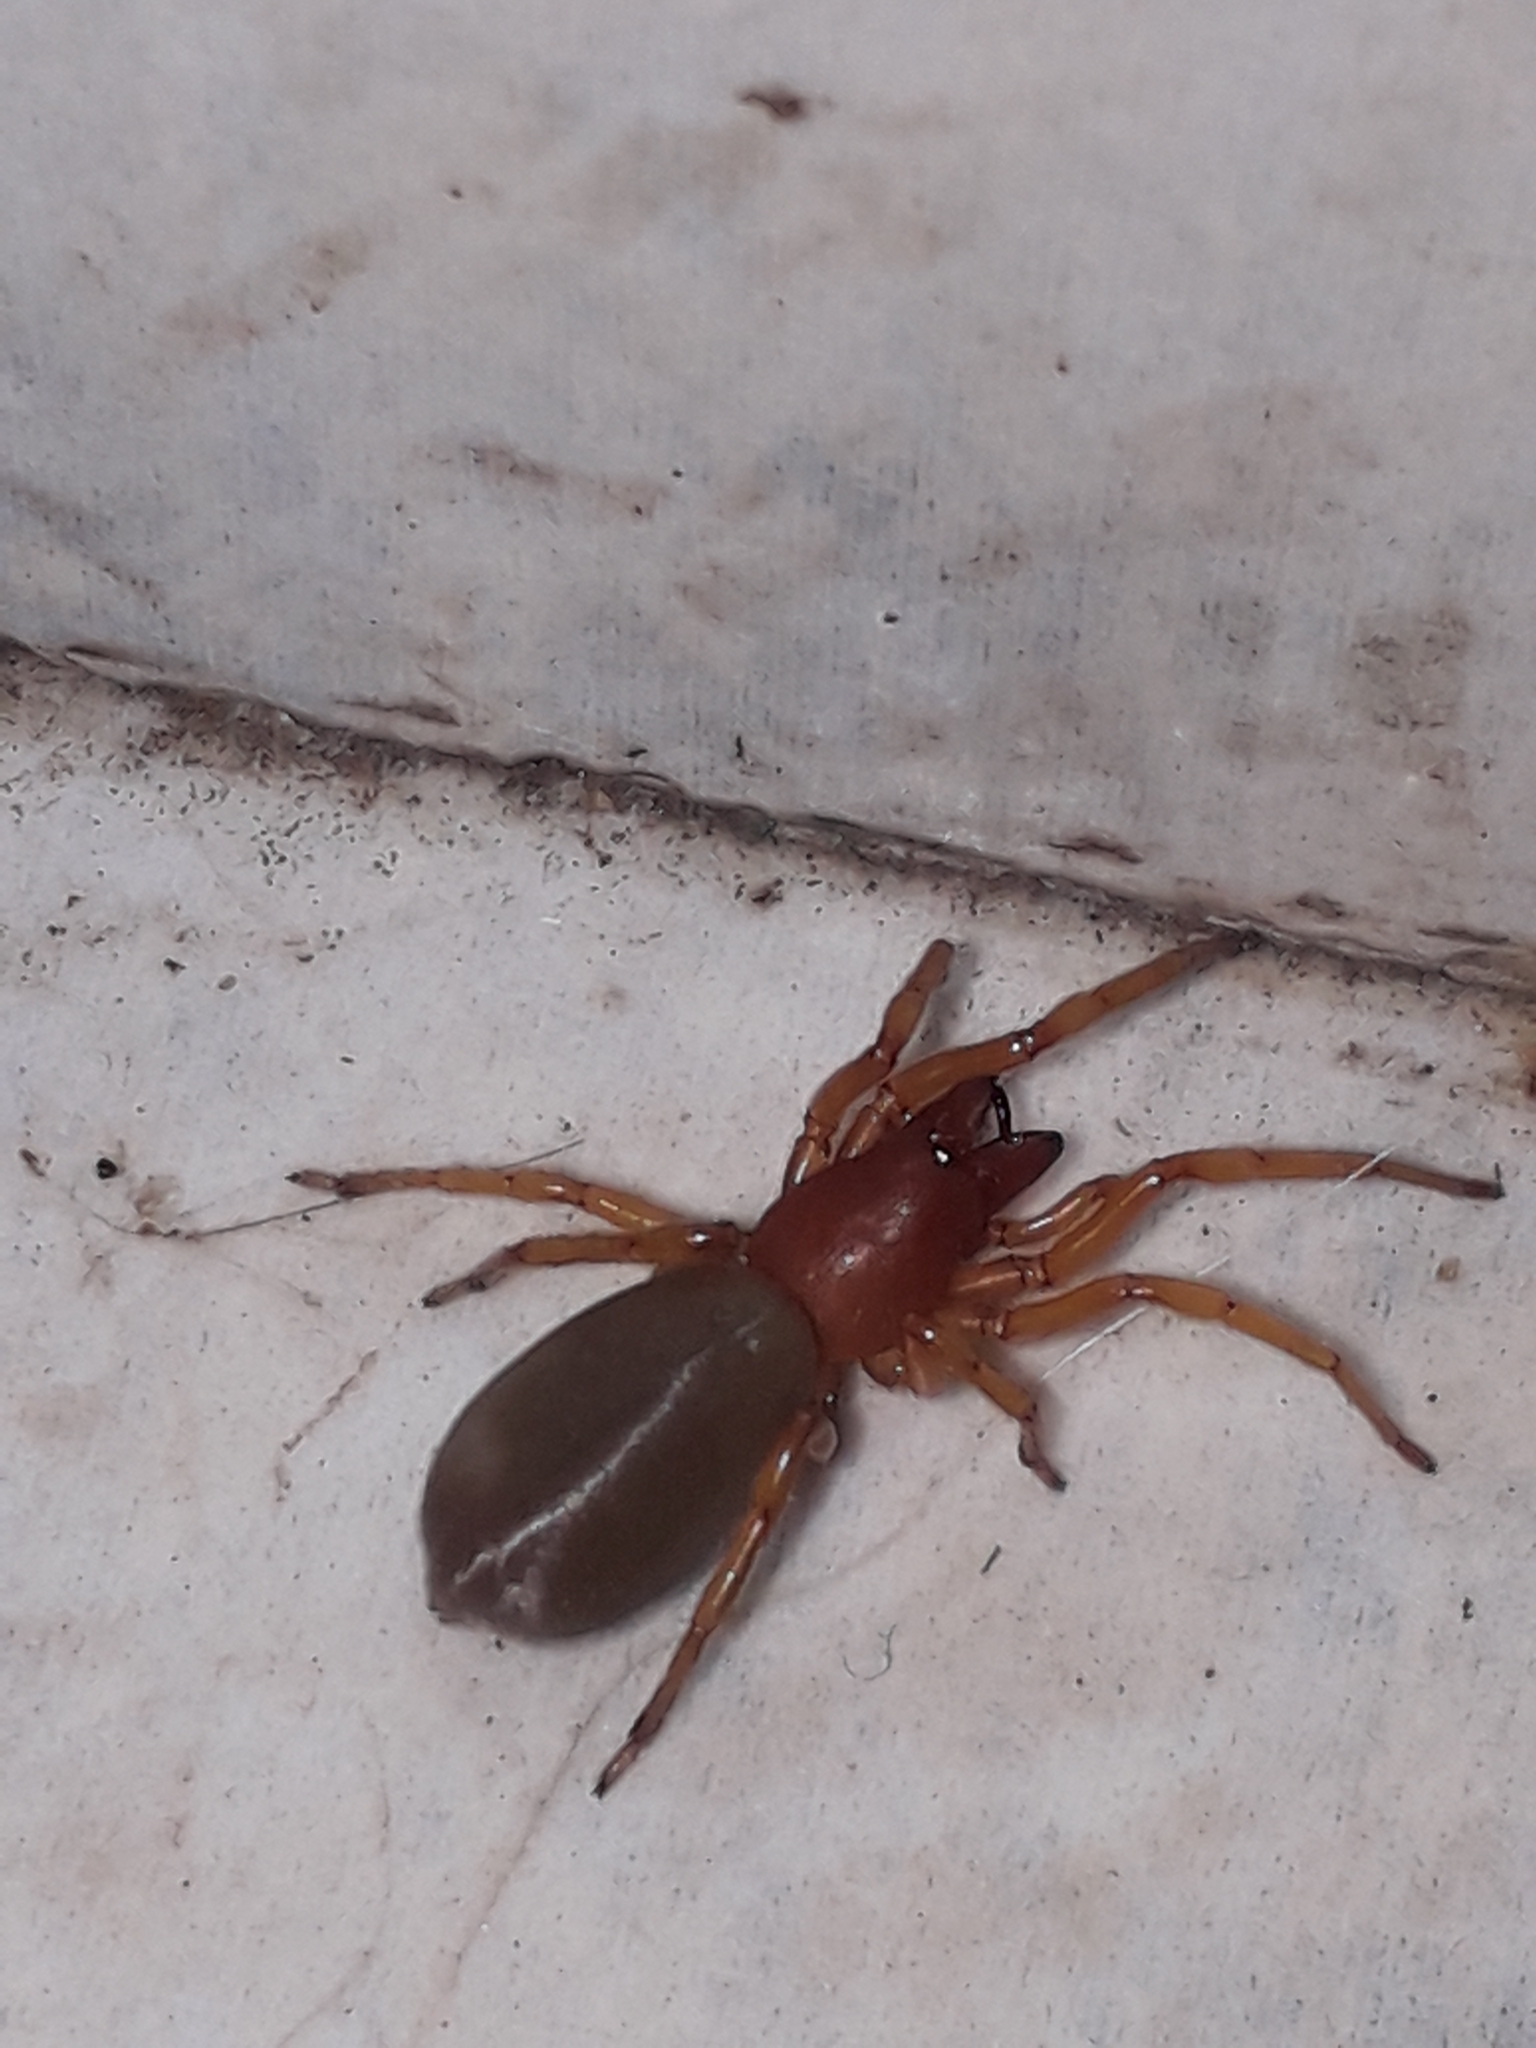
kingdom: Animalia
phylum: Arthropoda
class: Arachnida
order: Araneae
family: Dysderidae
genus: Dysdera
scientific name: Dysdera crocata
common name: Woodlouse spider
